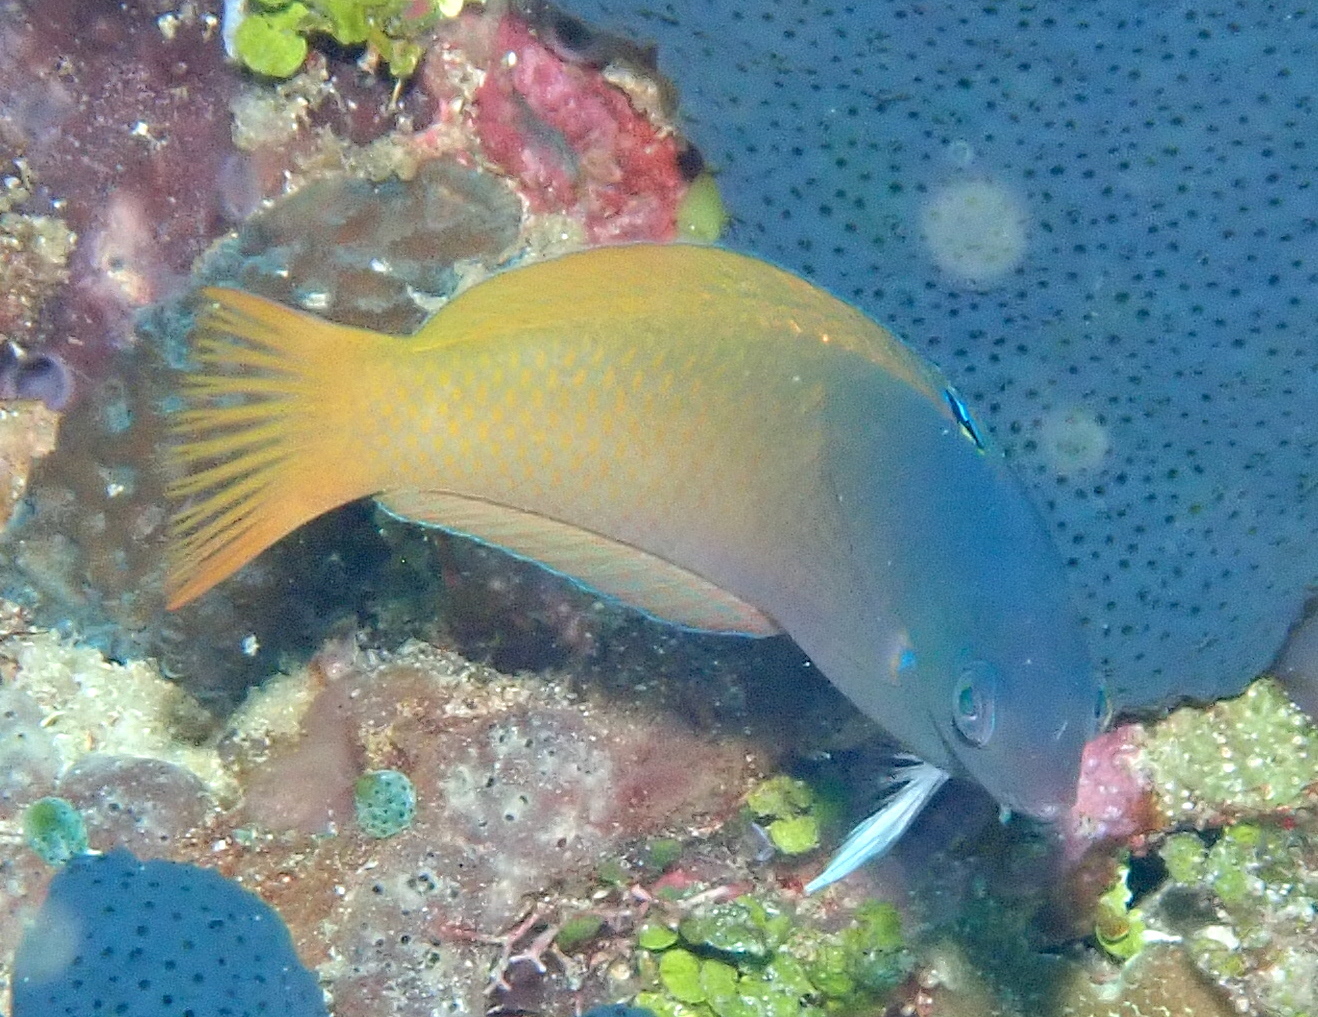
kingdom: Animalia
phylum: Chordata
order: Perciformes
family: Labridae
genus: Halichoeres
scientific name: Halichoeres prosopeion
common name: Half-grey wrasse
